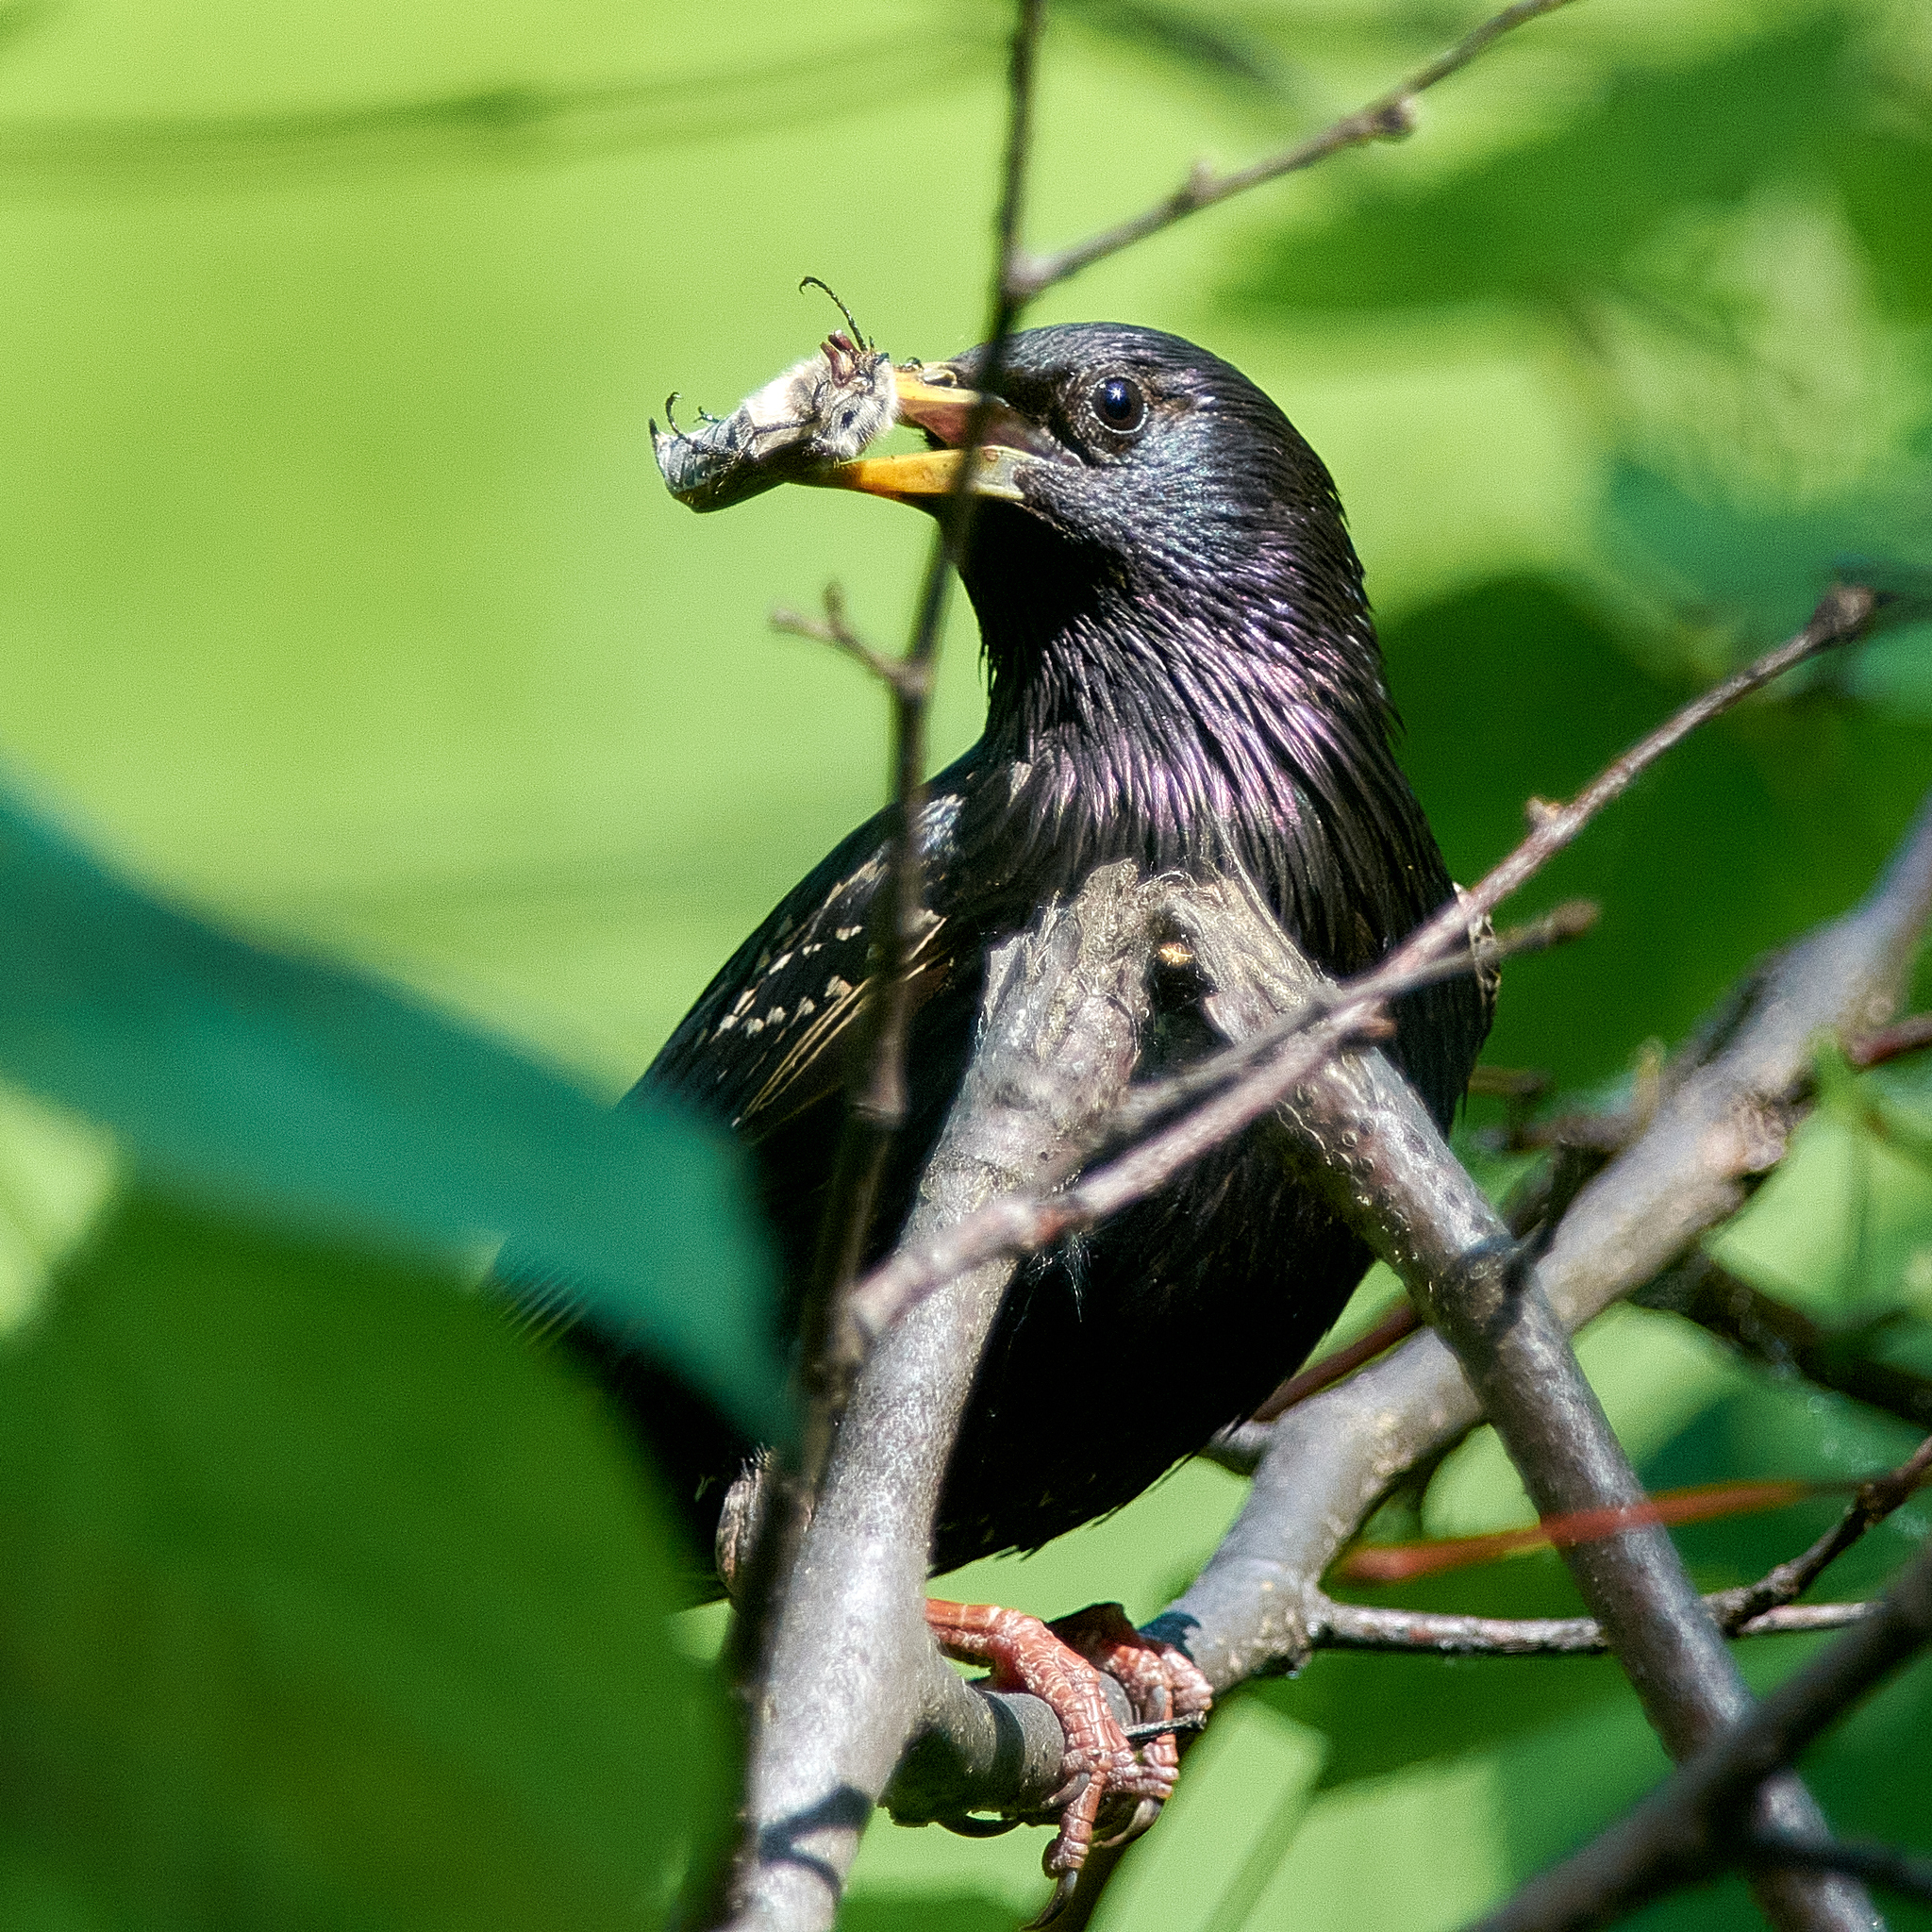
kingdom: Animalia
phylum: Chordata
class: Aves
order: Passeriformes
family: Sturnidae
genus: Sturnus
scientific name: Sturnus vulgaris
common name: Common starling
